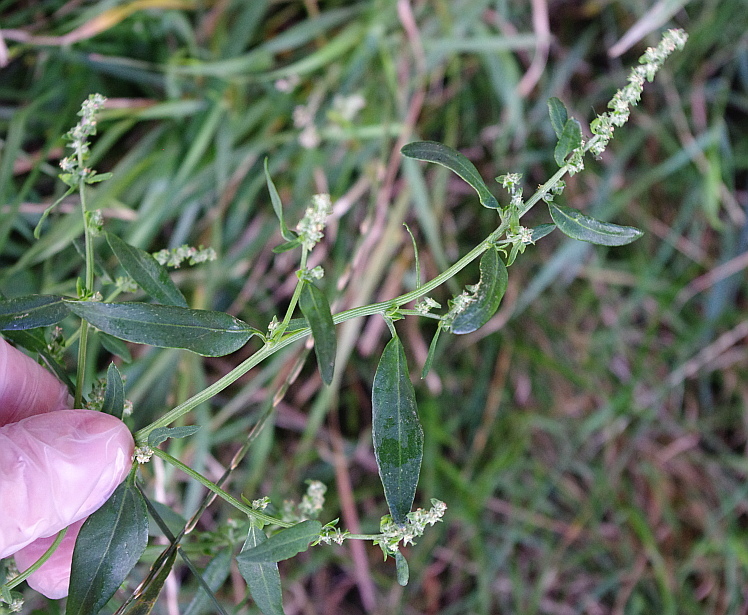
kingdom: Plantae
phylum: Tracheophyta
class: Magnoliopsida
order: Caryophyllales
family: Amaranthaceae
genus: Atriplex
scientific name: Atriplex patula
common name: Common orache
